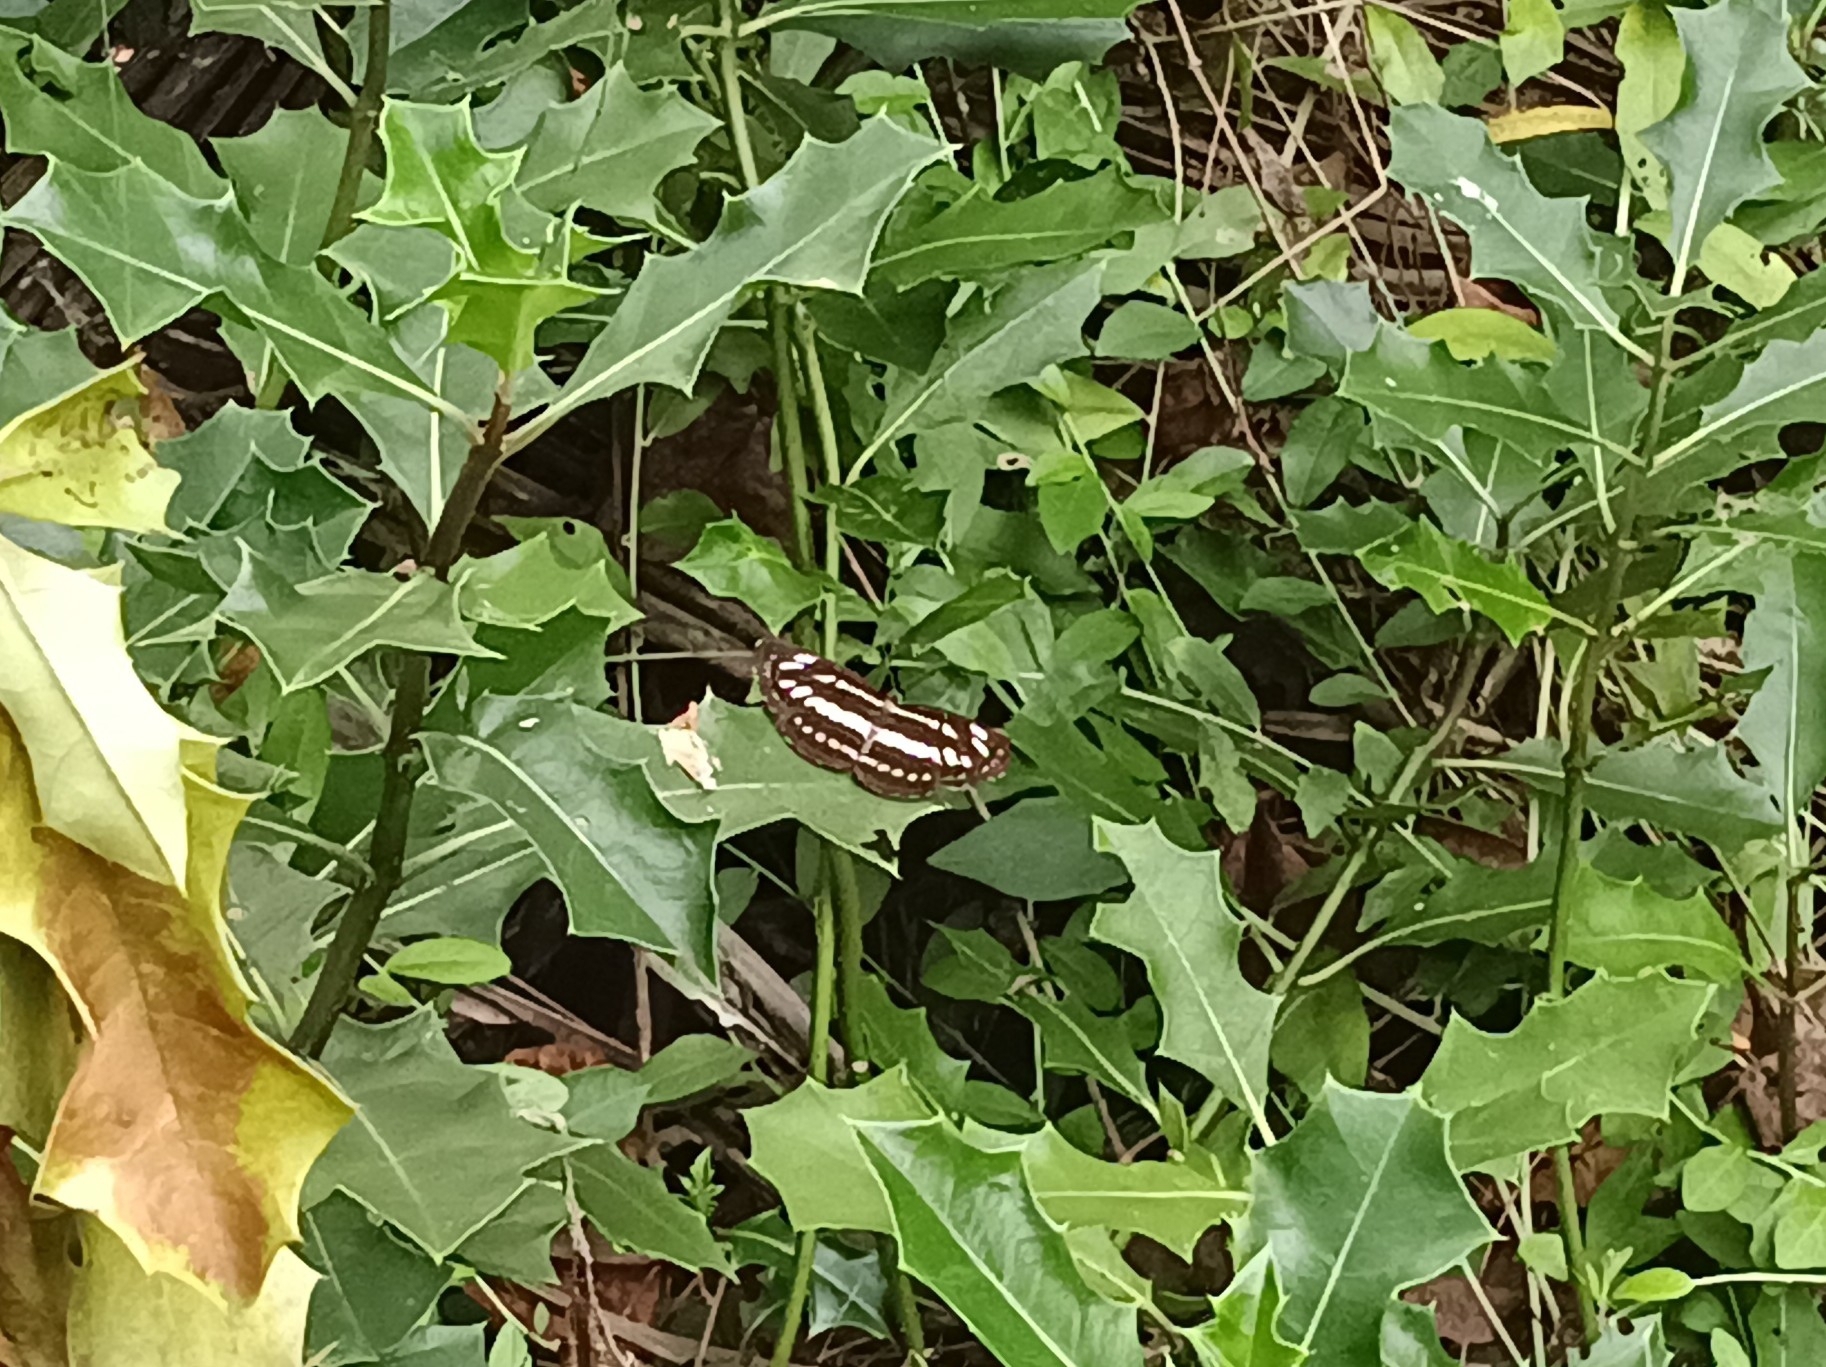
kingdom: Animalia
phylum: Arthropoda
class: Insecta
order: Lepidoptera
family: Nymphalidae
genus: Neptis
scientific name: Neptis hylas
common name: Common sailer
